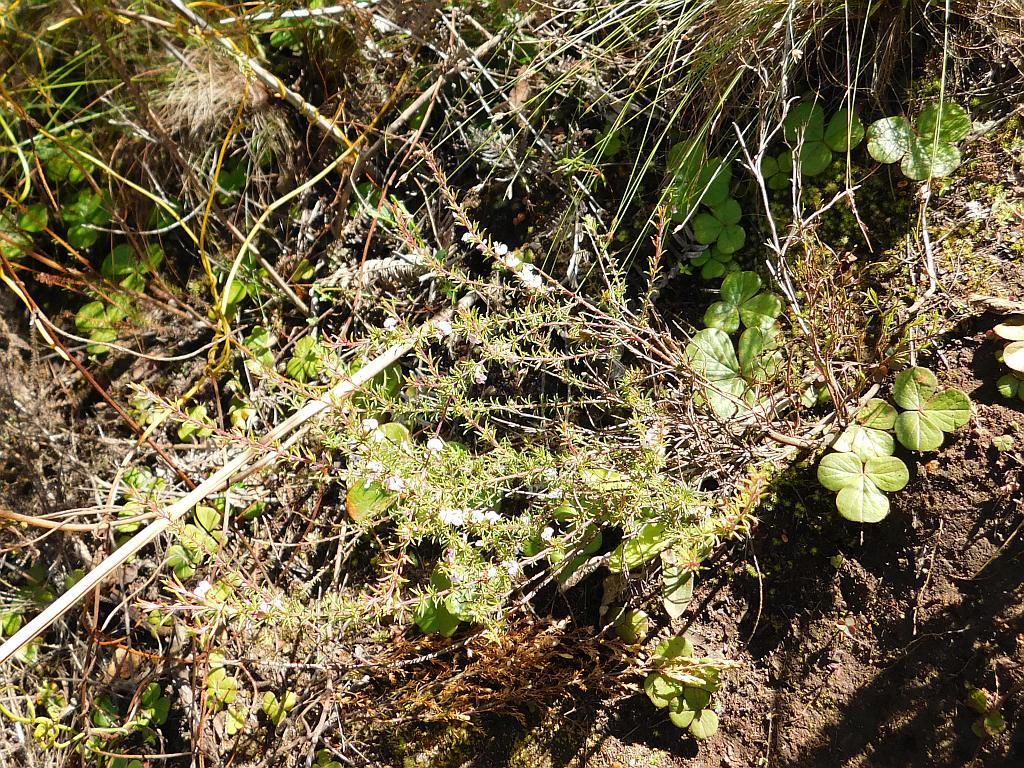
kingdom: Plantae
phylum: Tracheophyta
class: Magnoliopsida
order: Fabales
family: Polygalaceae
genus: Muraltia
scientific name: Muraltia ericoides
